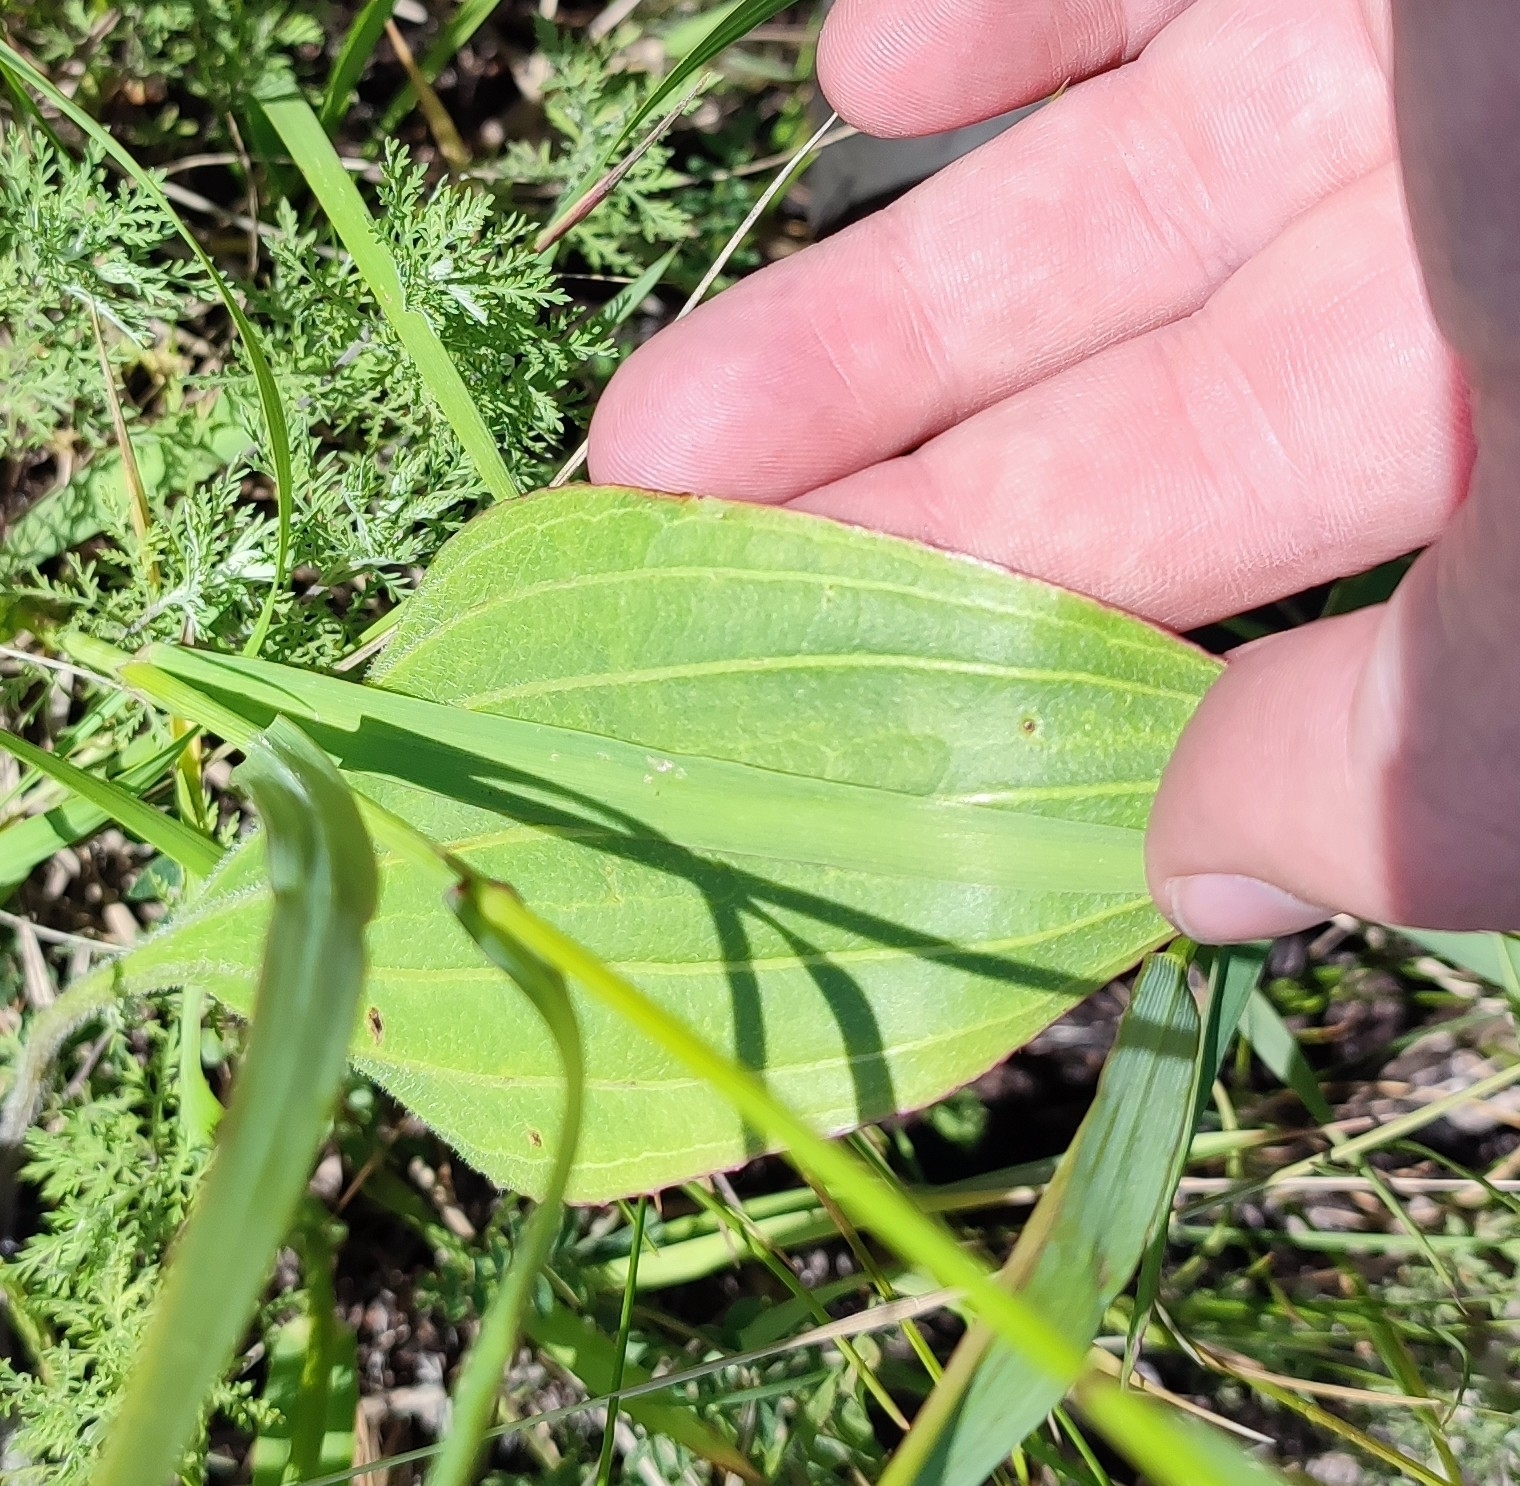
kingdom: Plantae
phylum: Tracheophyta
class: Magnoliopsida
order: Lamiales
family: Plantaginaceae
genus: Plantago
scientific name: Plantago cornuti
